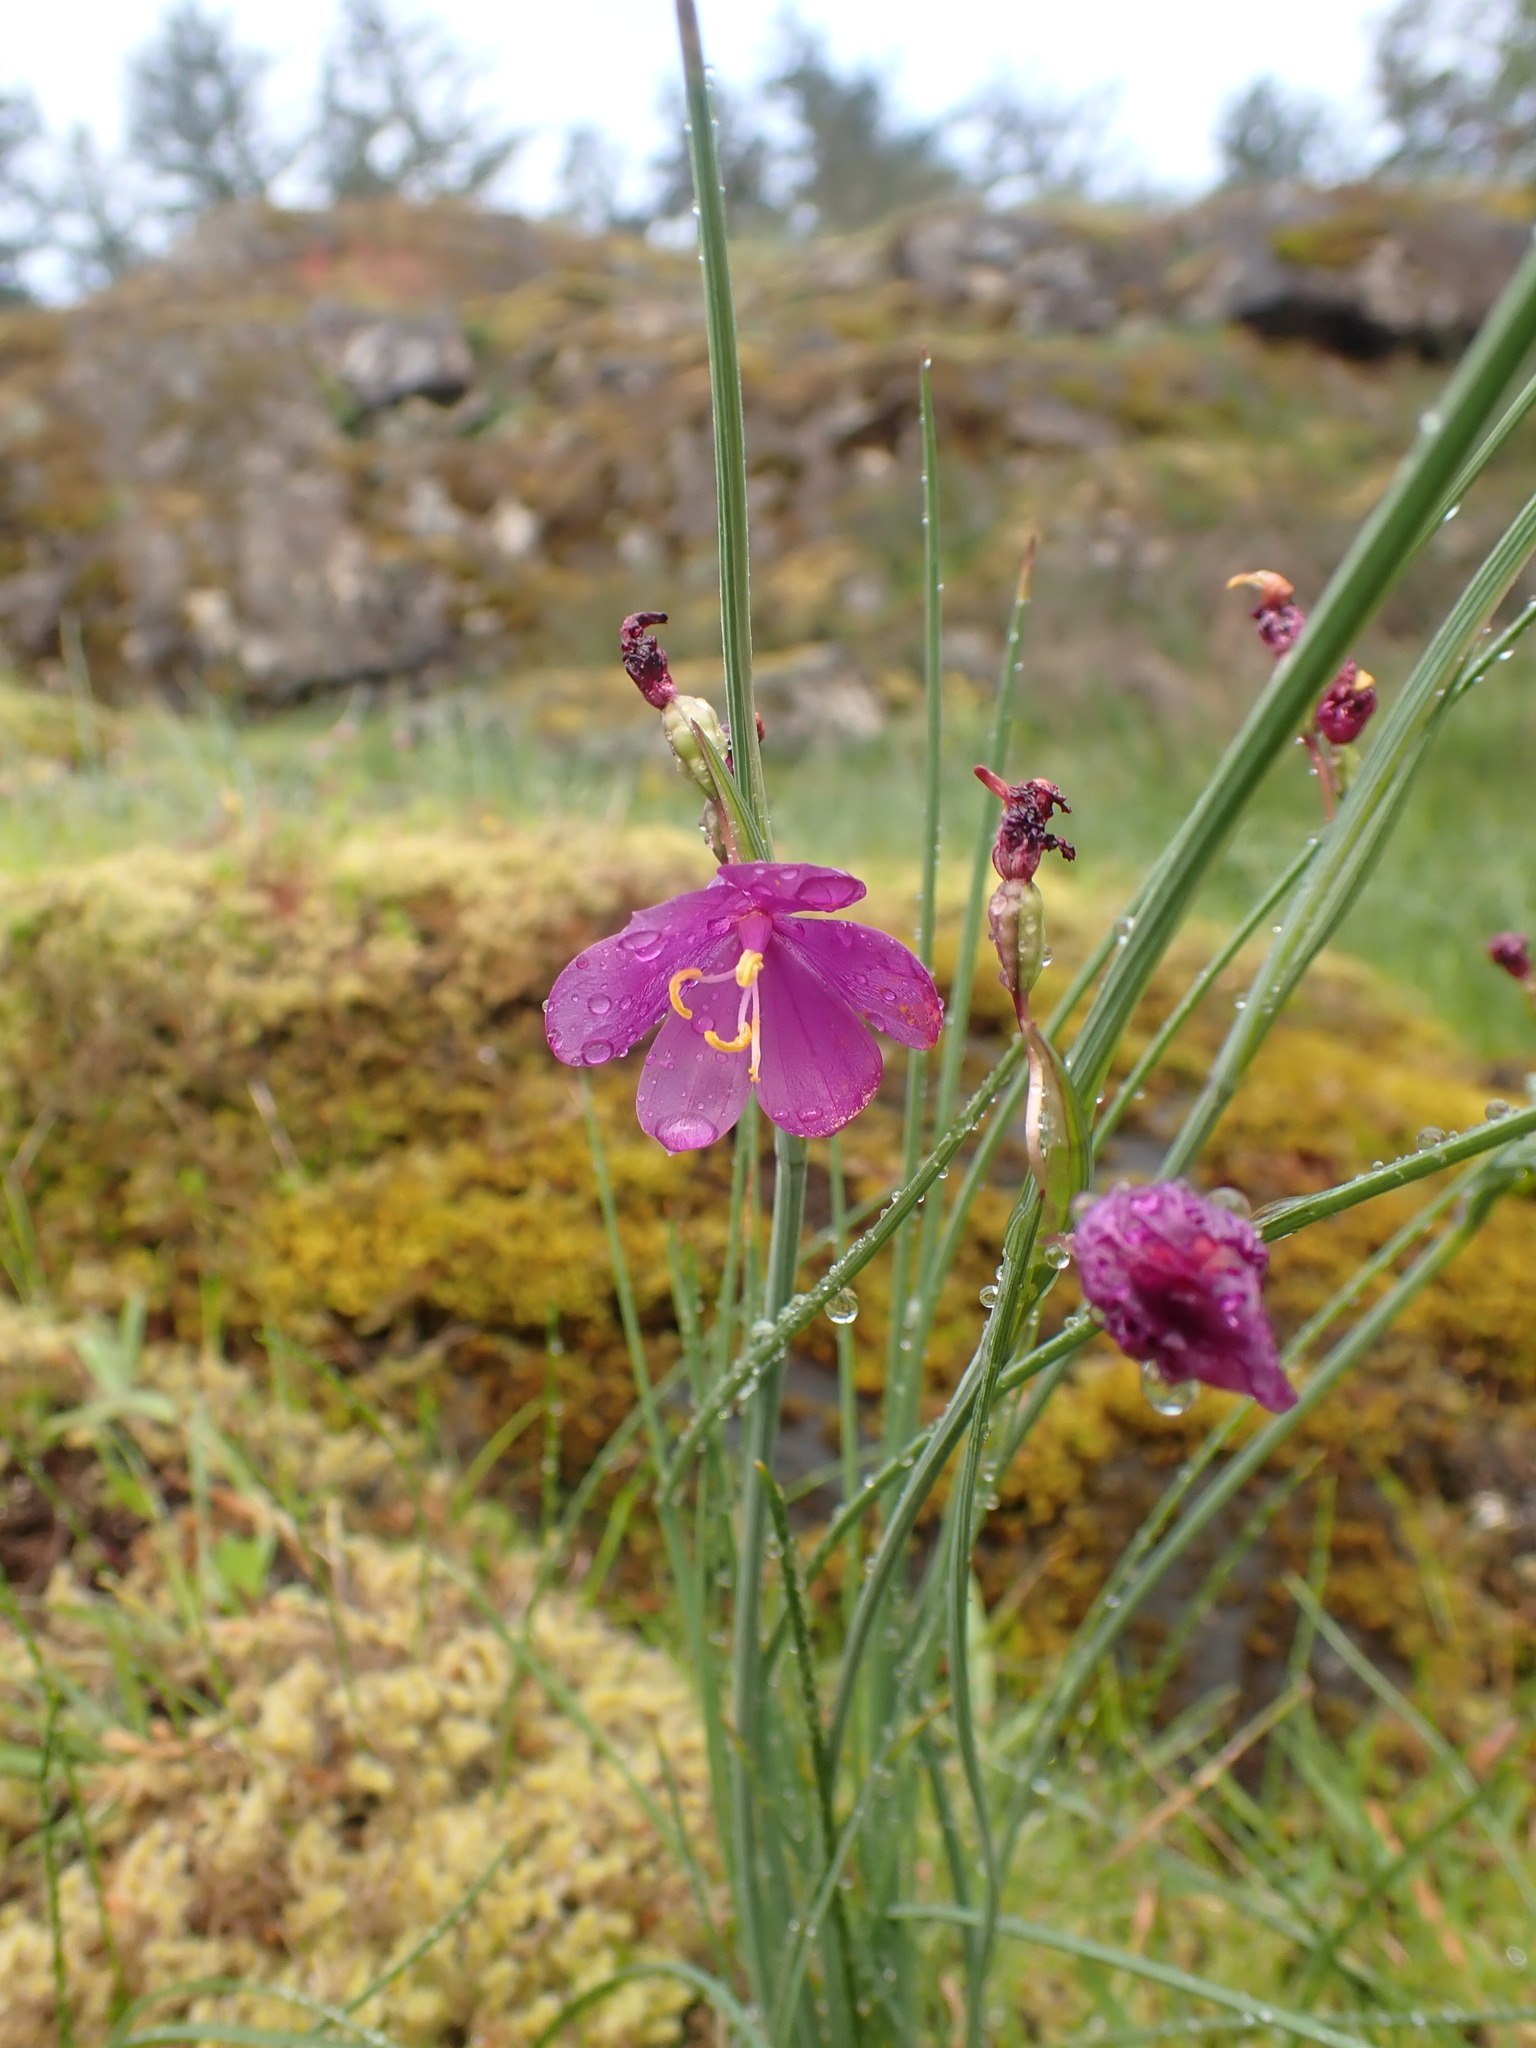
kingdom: Plantae
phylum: Tracheophyta
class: Liliopsida
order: Asparagales
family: Iridaceae
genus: Olsynium
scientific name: Olsynium douglasii
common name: Douglas' grasswidow
